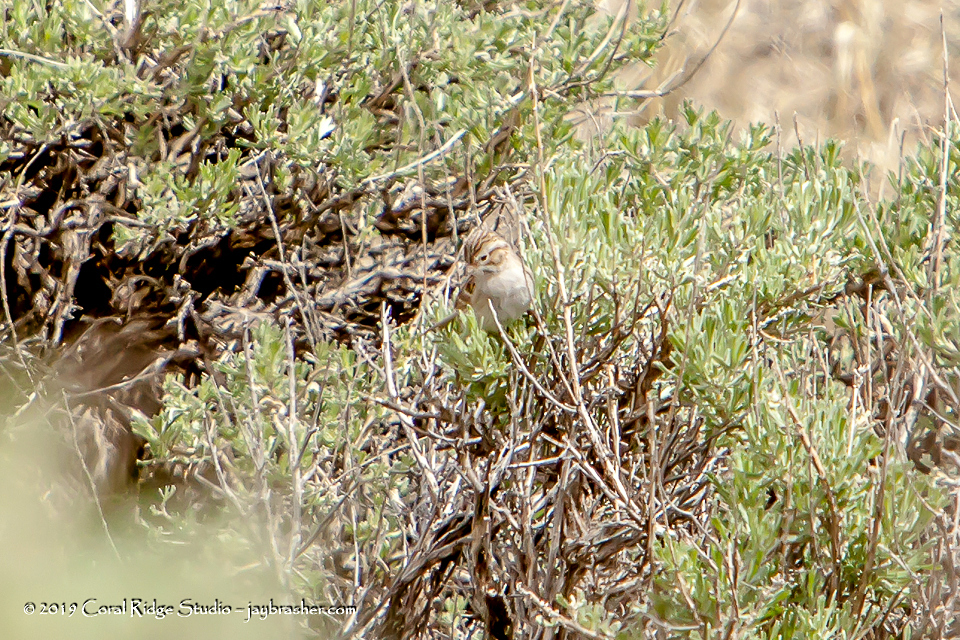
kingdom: Animalia
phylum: Chordata
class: Aves
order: Passeriformes
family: Passerellidae
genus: Spizella
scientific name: Spizella breweri
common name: Brewer's sparrow
